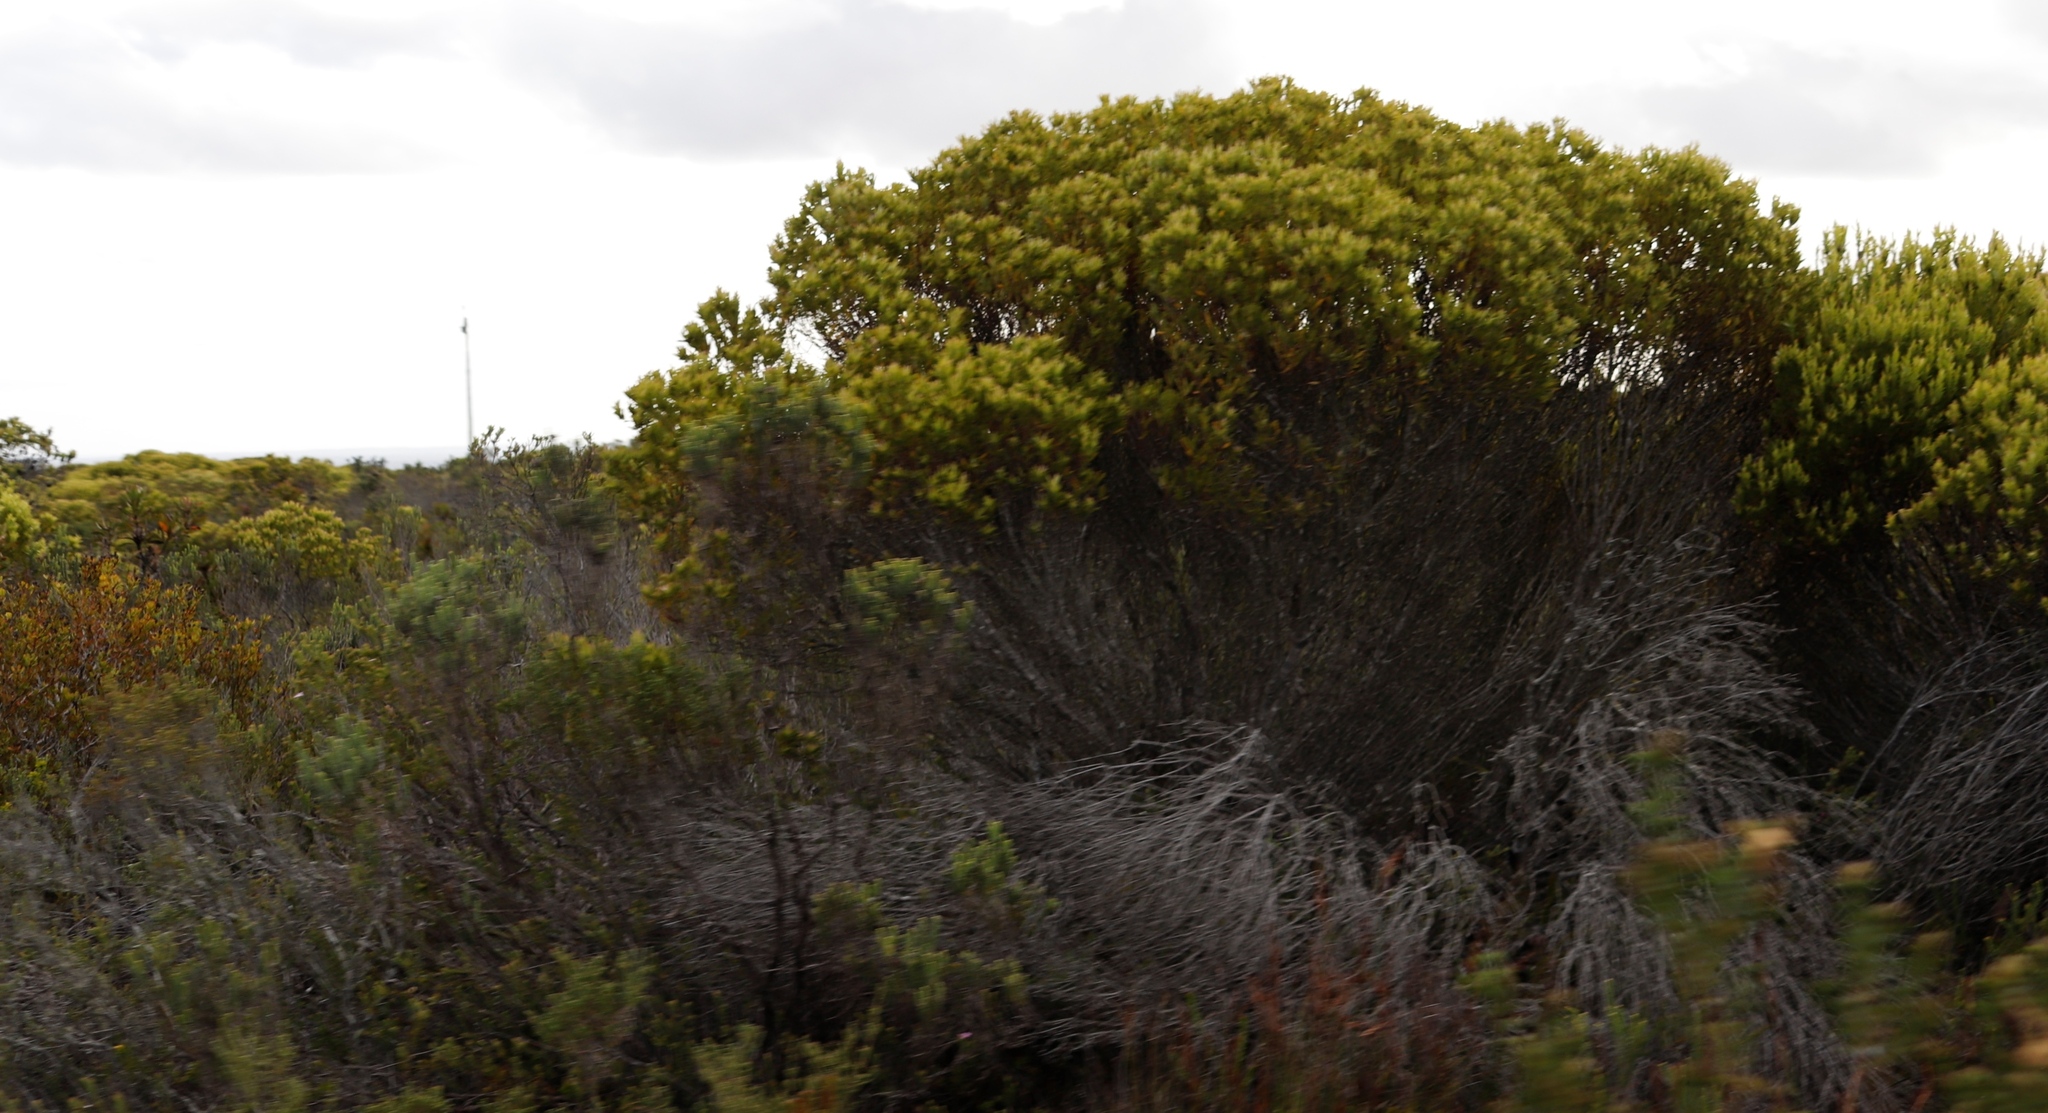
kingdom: Plantae
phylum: Tracheophyta
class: Magnoliopsida
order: Proteales
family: Proteaceae
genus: Leucadendron
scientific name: Leucadendron meridianum
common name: Limestone conebush
